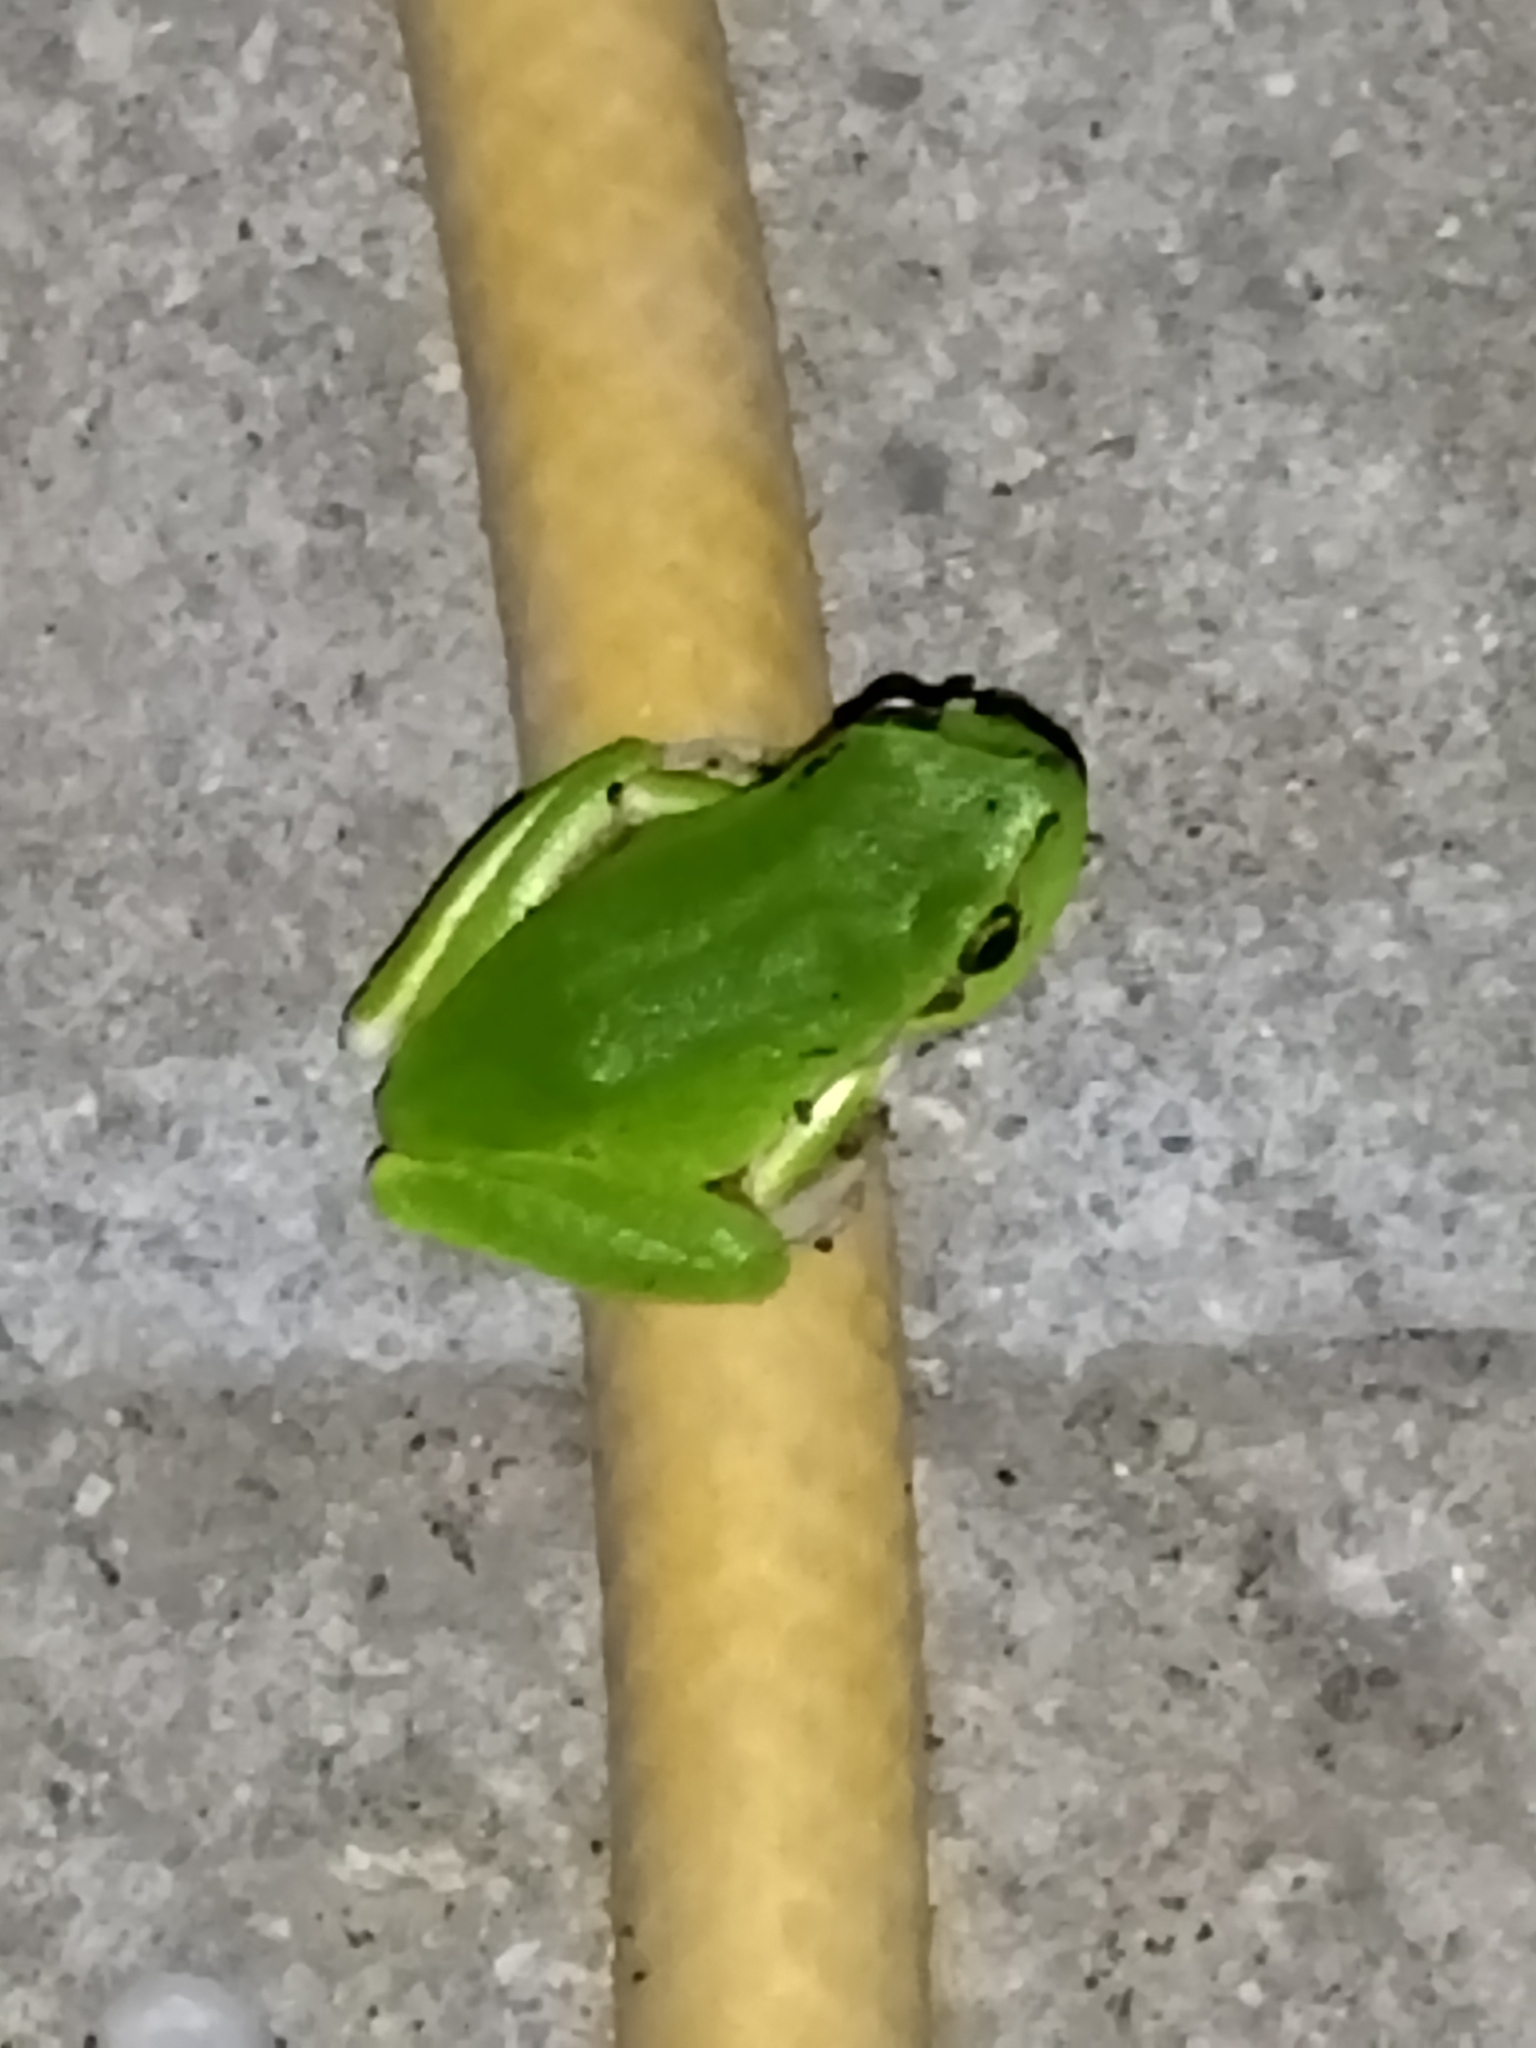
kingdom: Animalia
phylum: Chordata
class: Amphibia
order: Anura
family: Hylidae
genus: Hyla
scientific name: Hyla orientalis
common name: Caucasian treefrog
